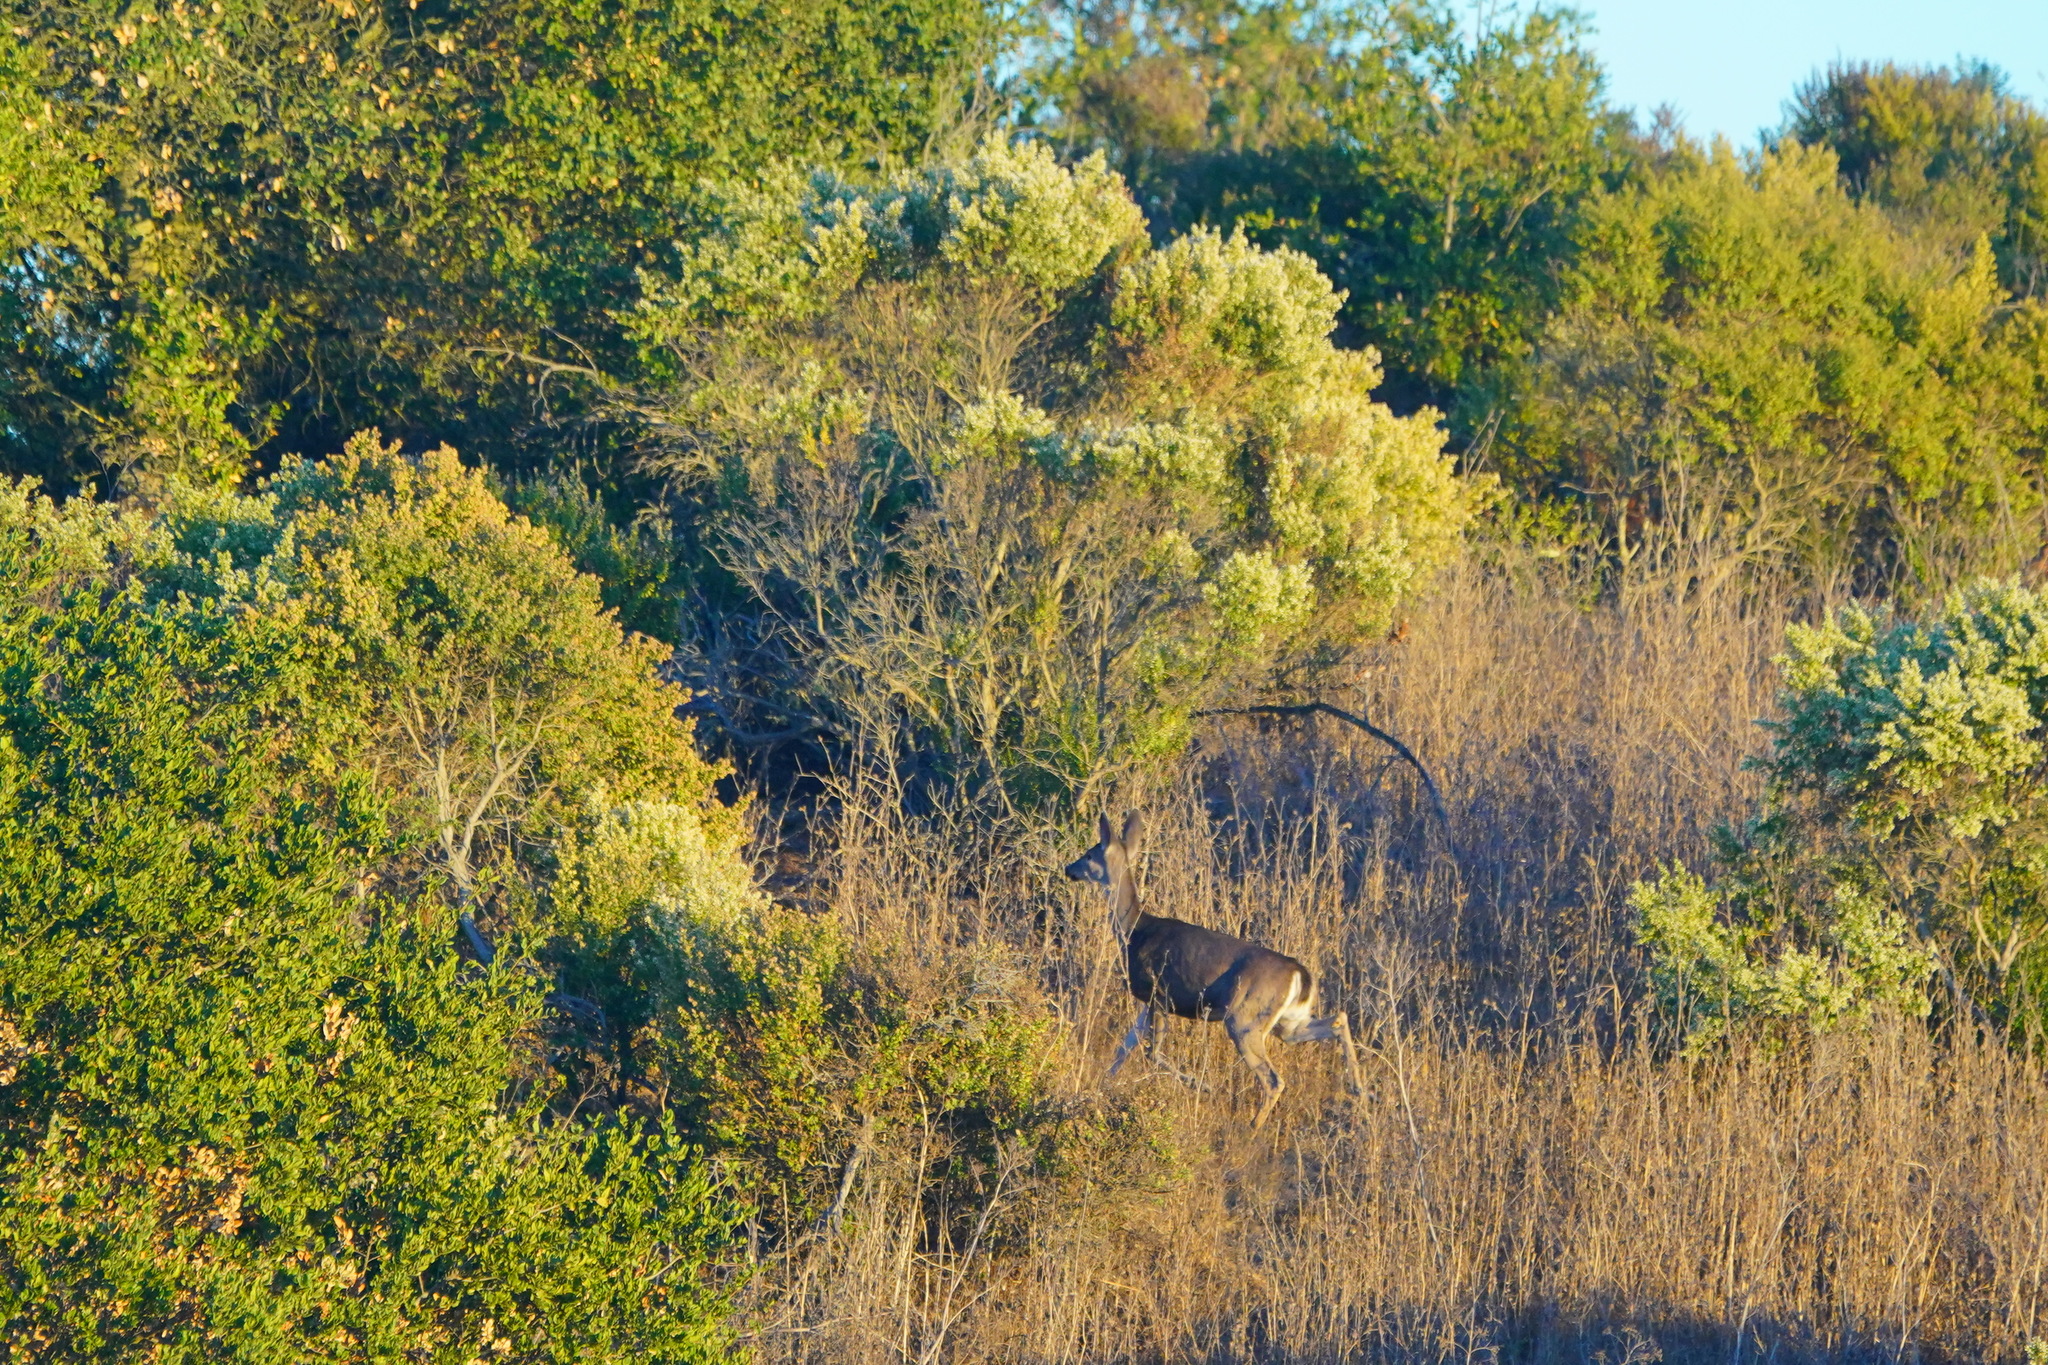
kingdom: Animalia
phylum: Chordata
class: Mammalia
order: Artiodactyla
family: Cervidae
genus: Odocoileus
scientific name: Odocoileus hemionus
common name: Mule deer
